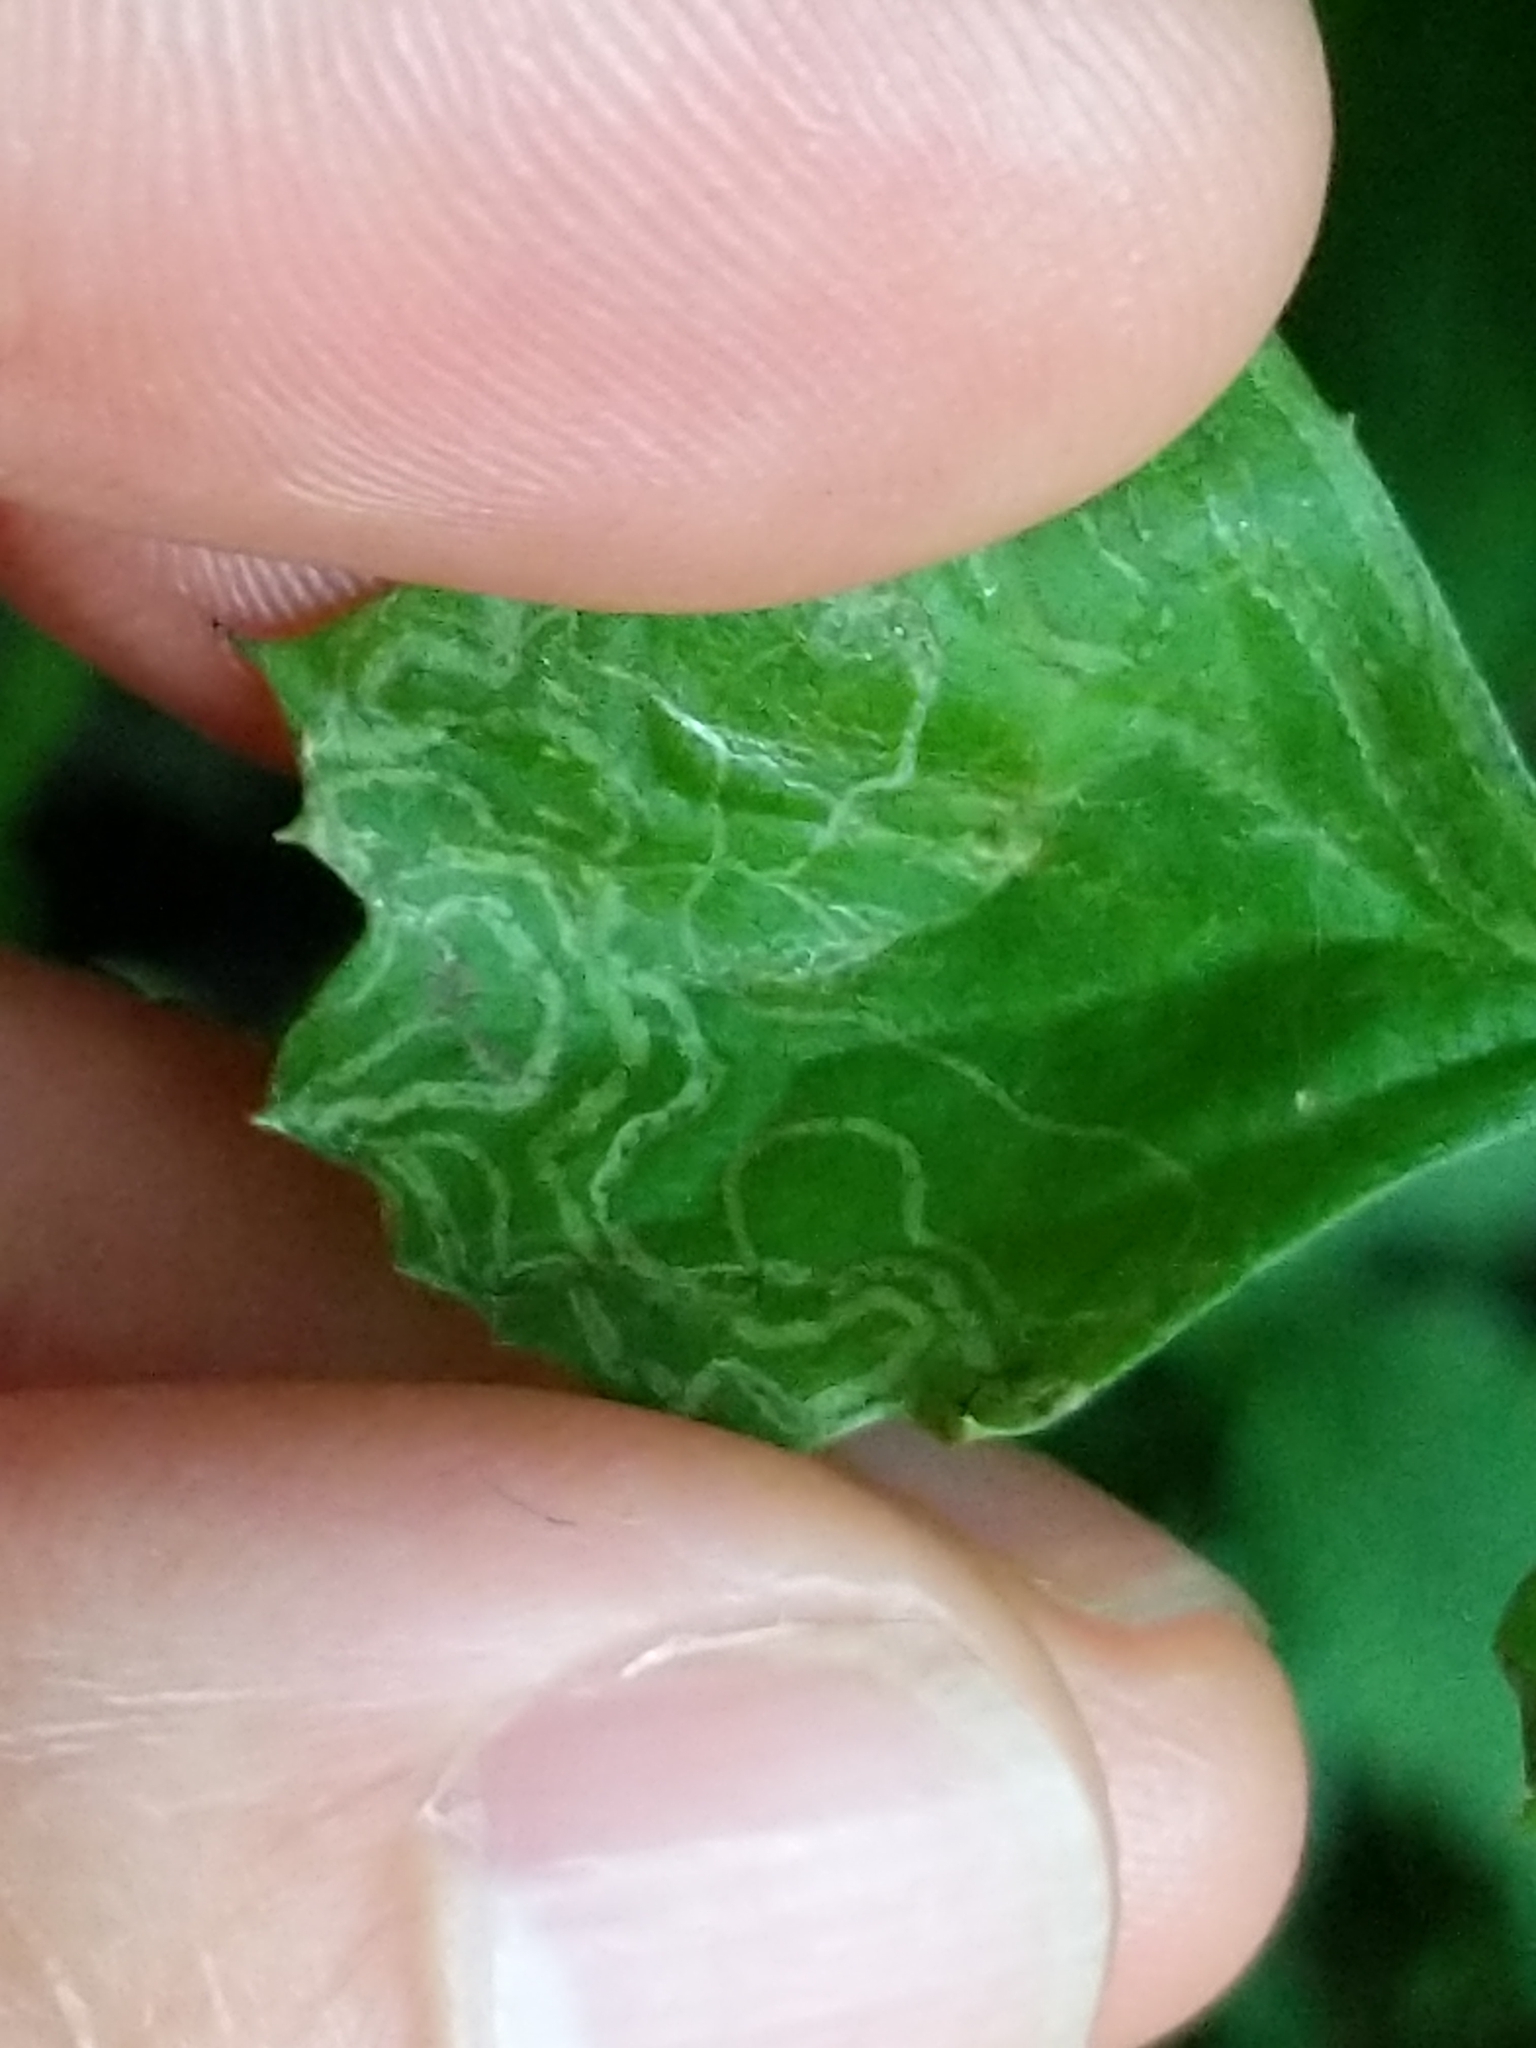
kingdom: Animalia
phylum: Arthropoda
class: Insecta
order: Lepidoptera
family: Gracillariidae
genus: Phyllocnistis
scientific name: Phyllocnistis insignis
